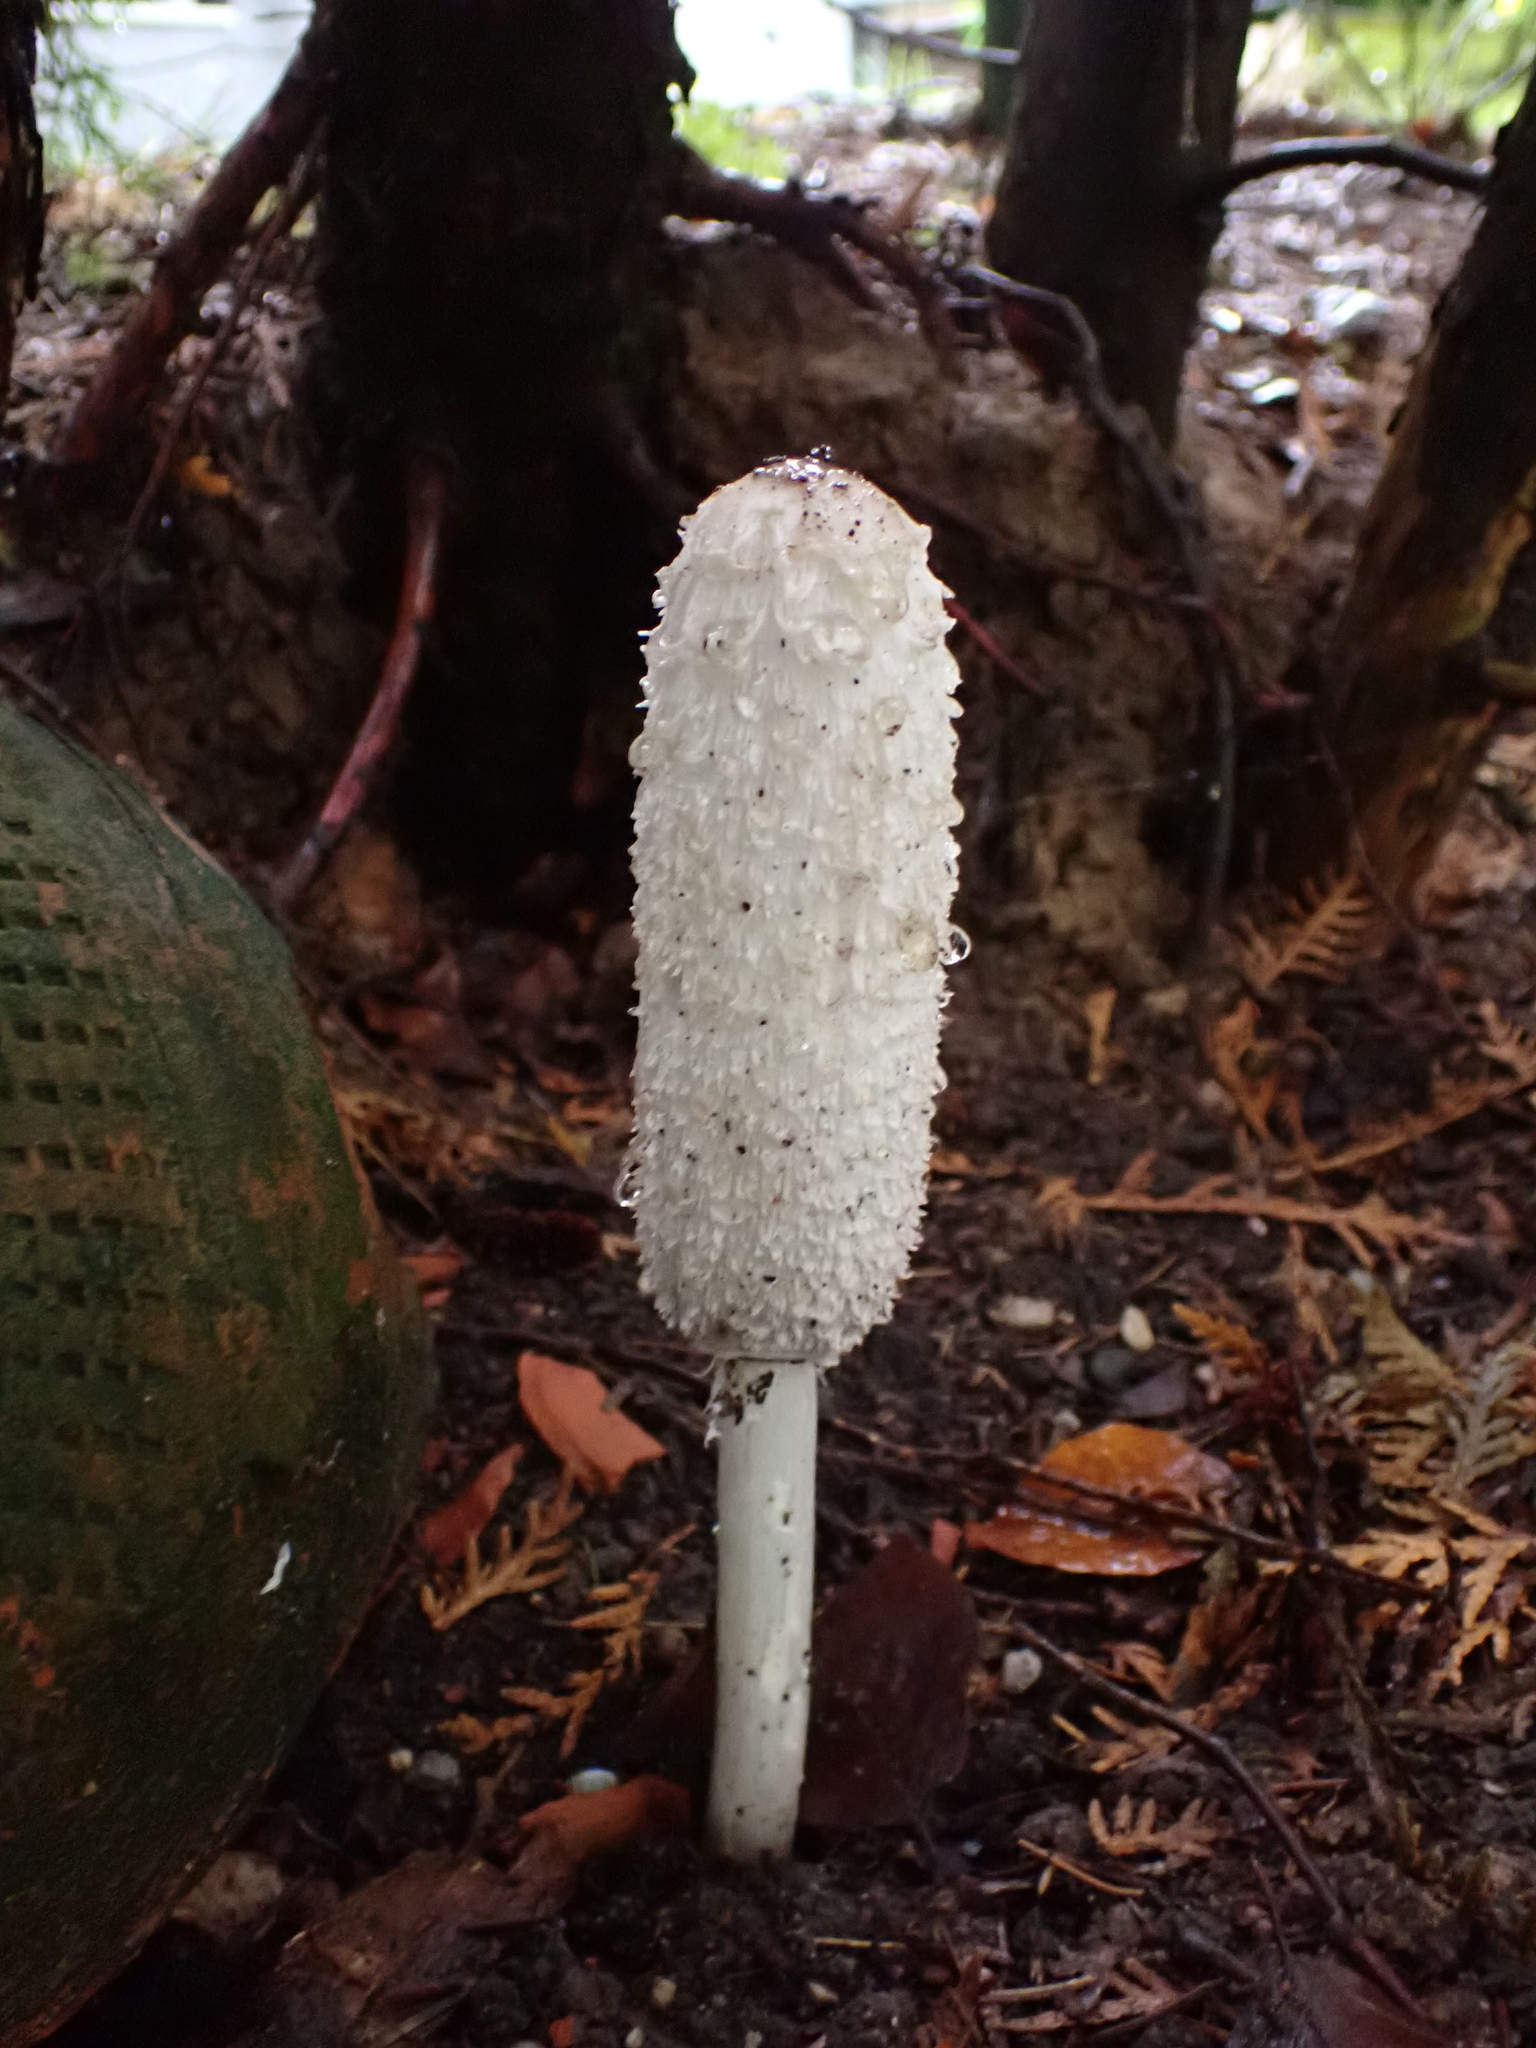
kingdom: Fungi
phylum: Basidiomycota
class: Agaricomycetes
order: Agaricales
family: Agaricaceae
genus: Coprinus
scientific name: Coprinus comatus
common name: Lawyer's wig
